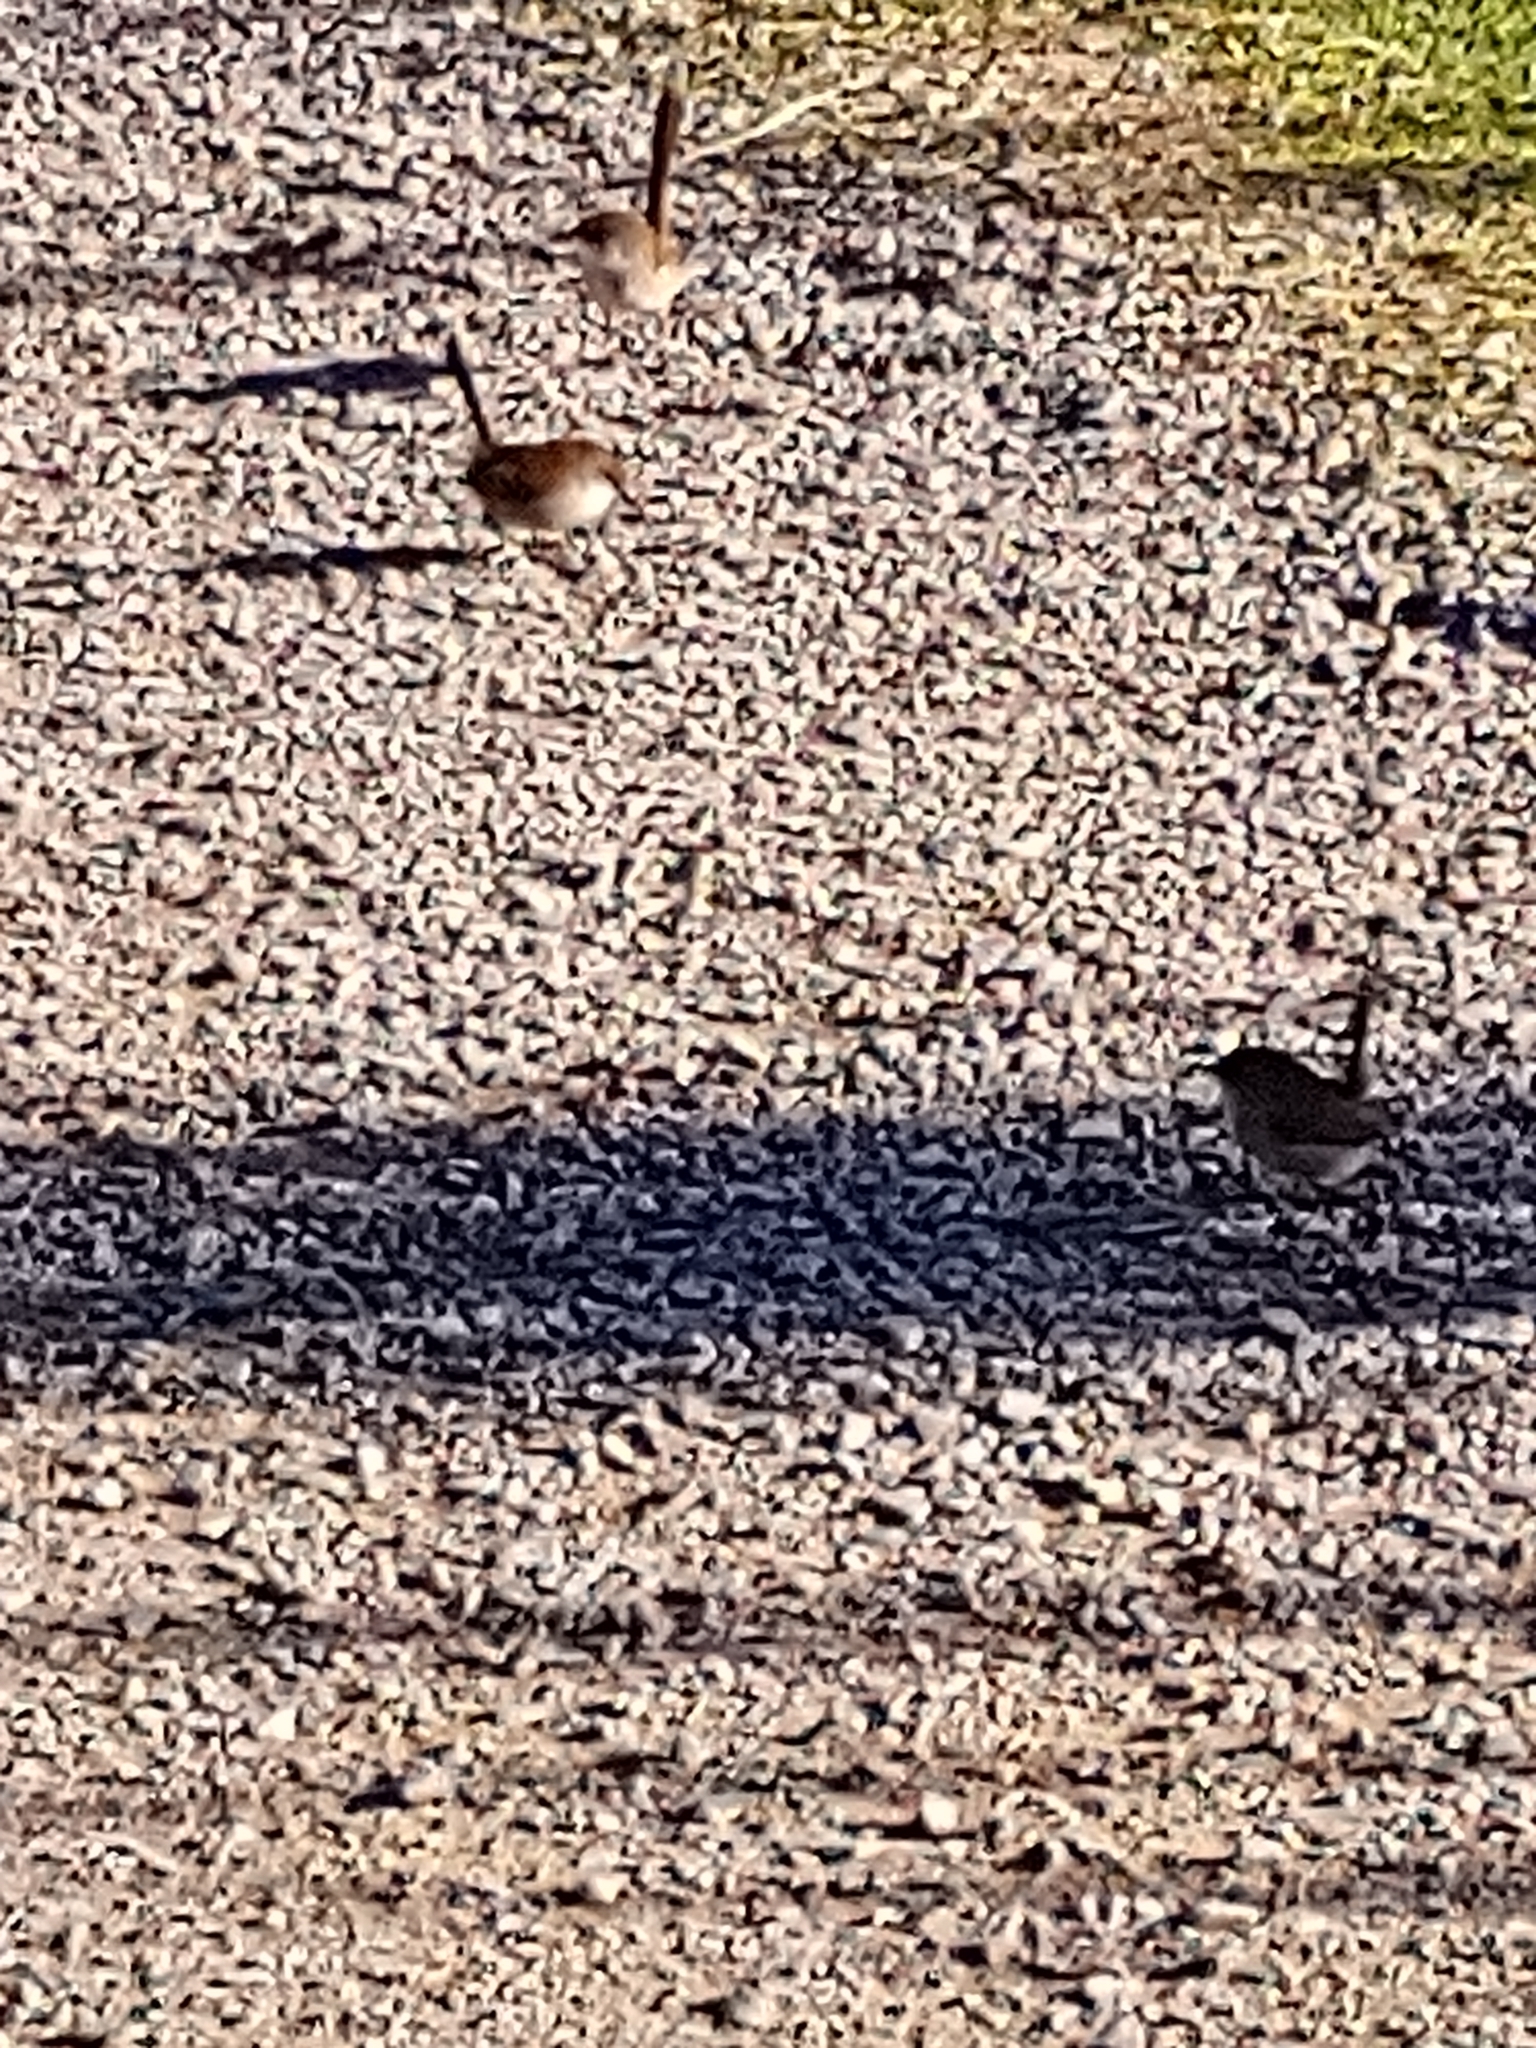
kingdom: Animalia
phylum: Chordata
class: Aves
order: Passeriformes
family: Maluridae
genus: Malurus
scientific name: Malurus cyaneus
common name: Superb fairywren
